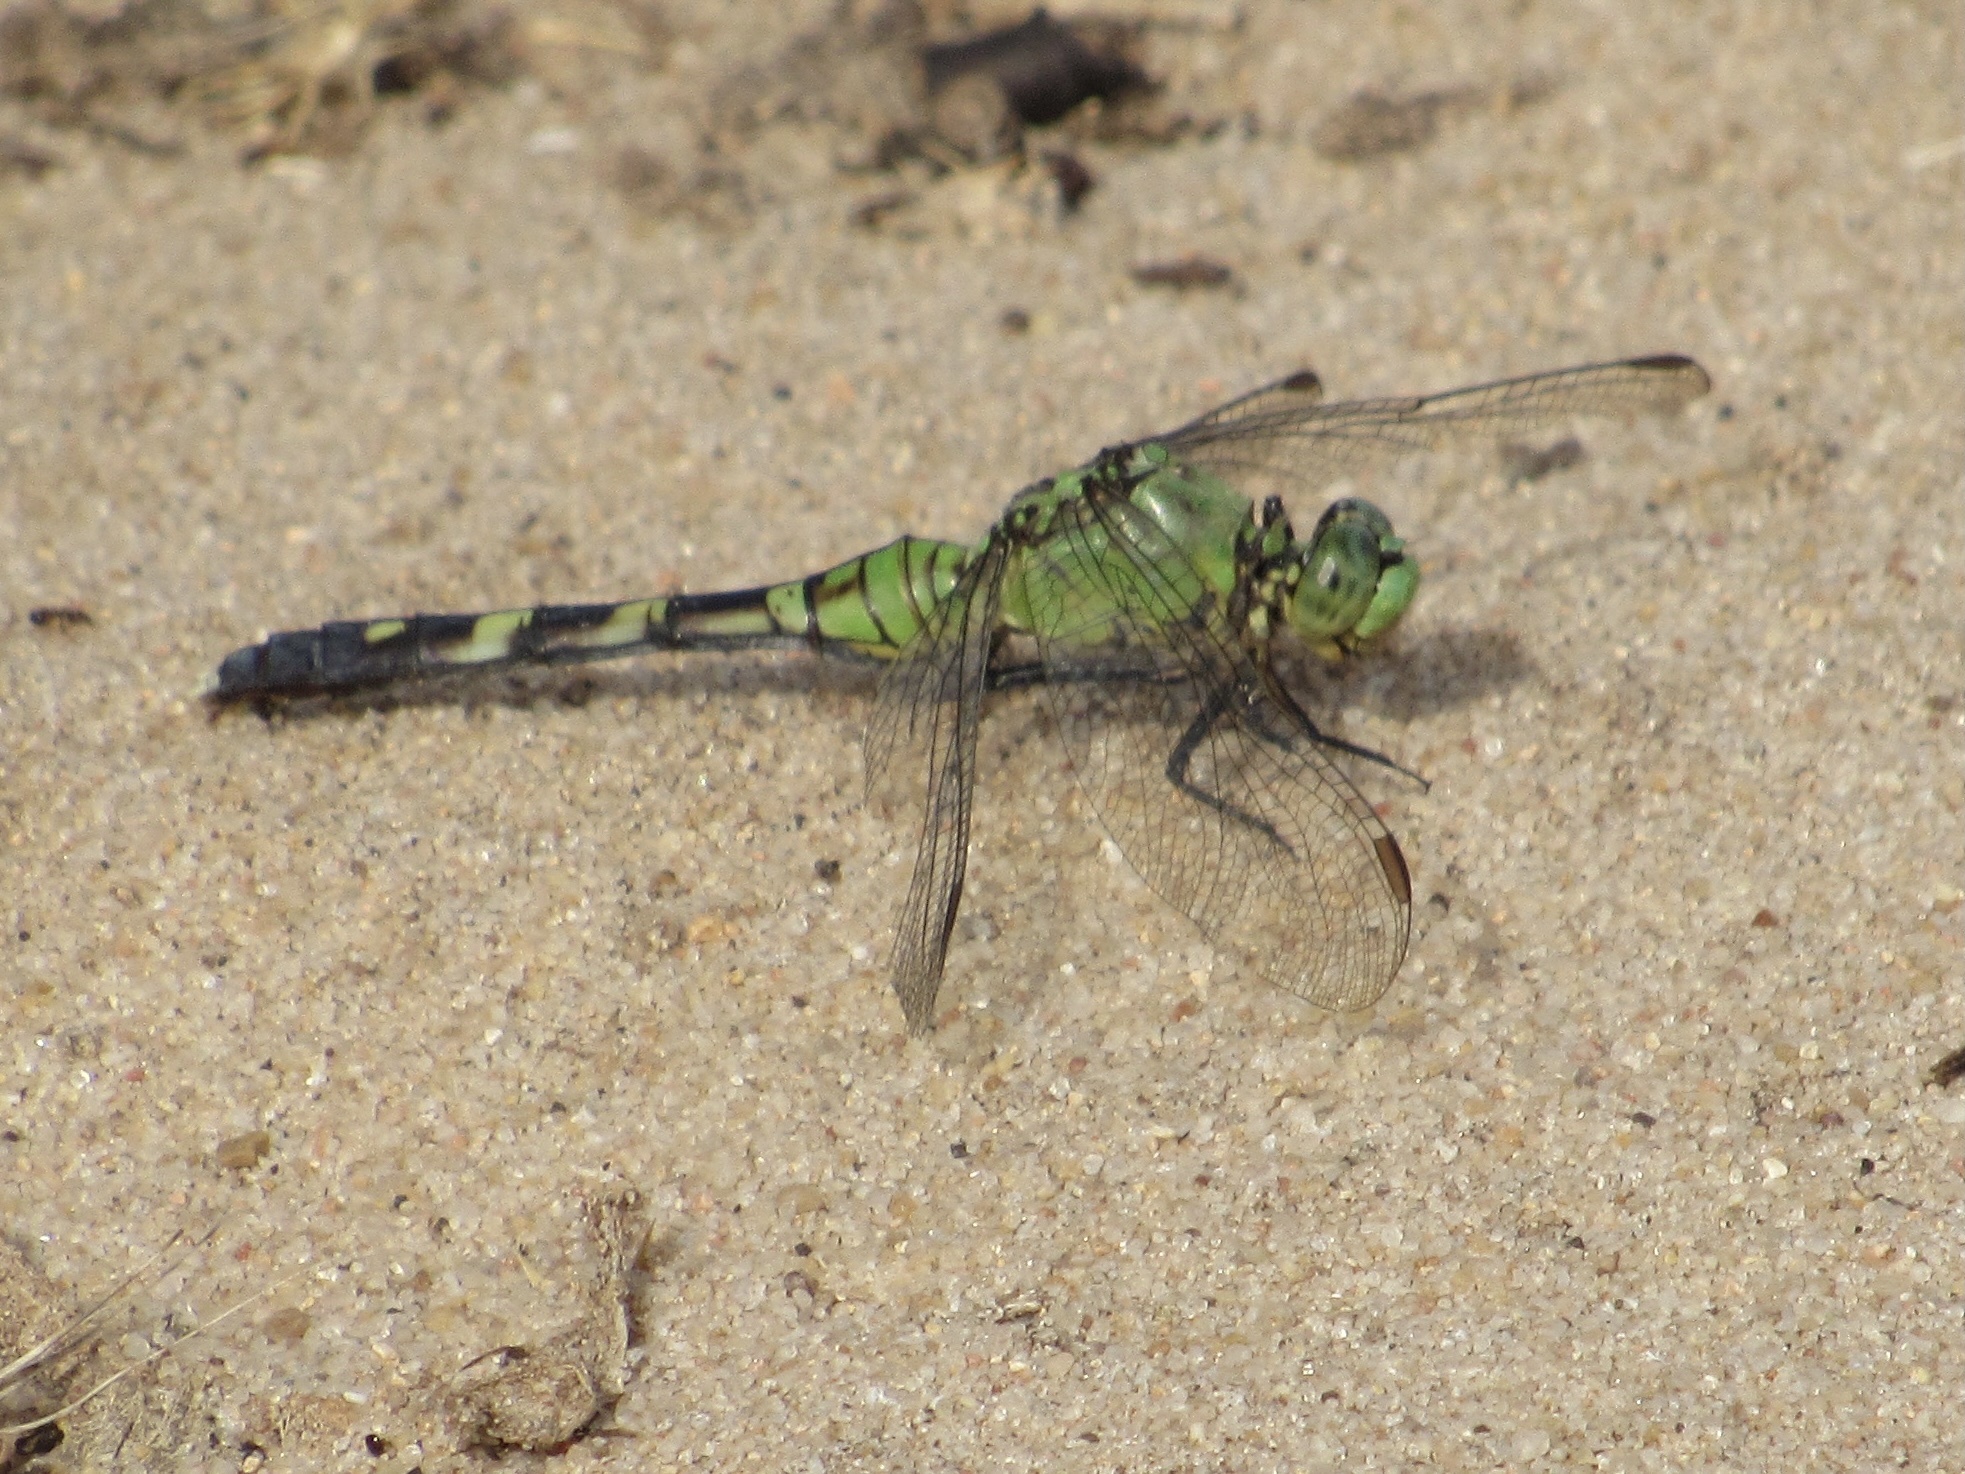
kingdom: Animalia
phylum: Arthropoda
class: Insecta
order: Odonata
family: Libellulidae
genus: Erythemis
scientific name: Erythemis simplicicollis
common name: Eastern pondhawk
